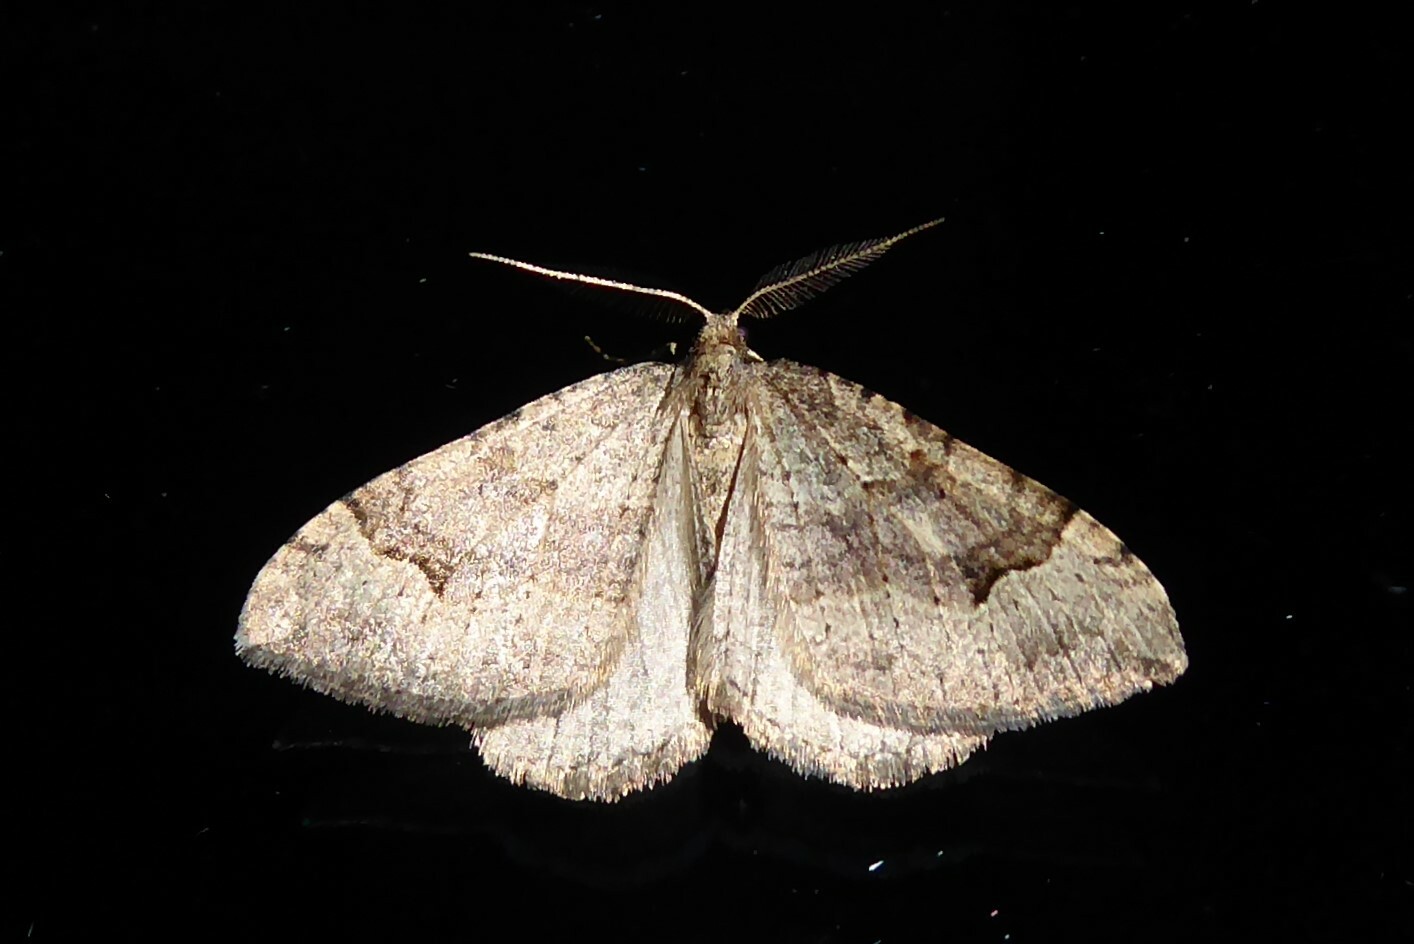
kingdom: Animalia
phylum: Arthropoda
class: Insecta
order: Lepidoptera
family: Geometridae
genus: Epyaxa
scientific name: Epyaxa rosearia
